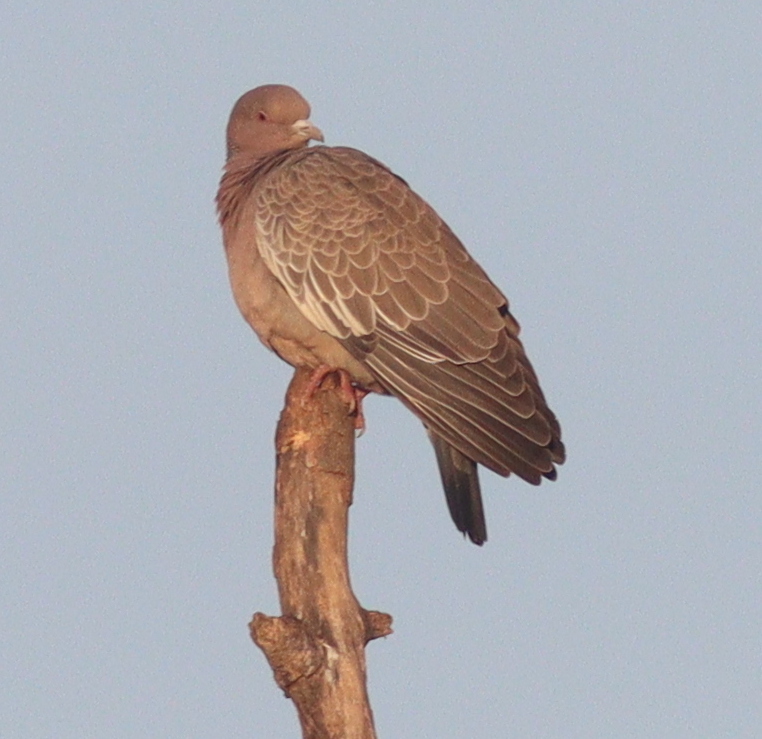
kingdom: Animalia
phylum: Chordata
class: Aves
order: Columbiformes
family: Columbidae
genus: Patagioenas
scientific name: Patagioenas picazuro
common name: Picazuro pigeon
